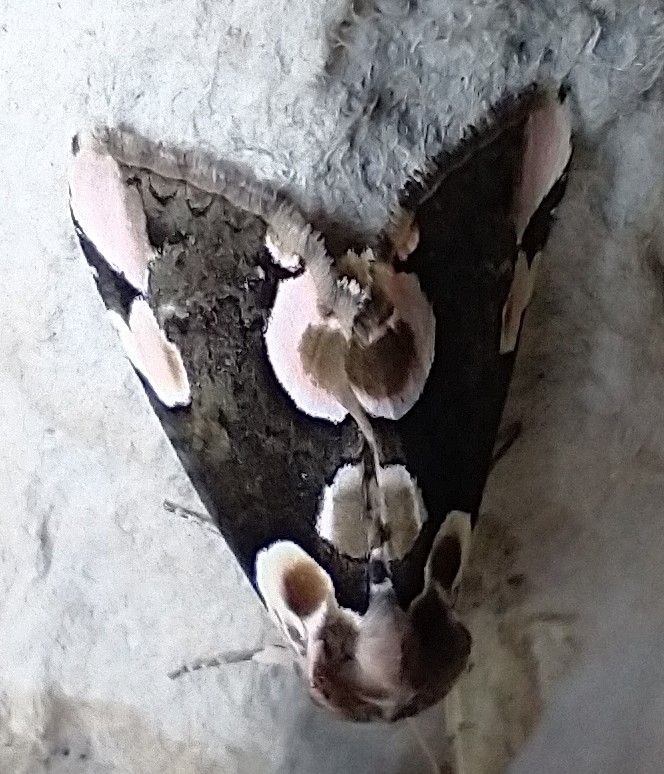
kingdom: Animalia
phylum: Arthropoda
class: Insecta
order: Lepidoptera
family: Drepanidae
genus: Thyatira
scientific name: Thyatira batis
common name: Peach blossom
